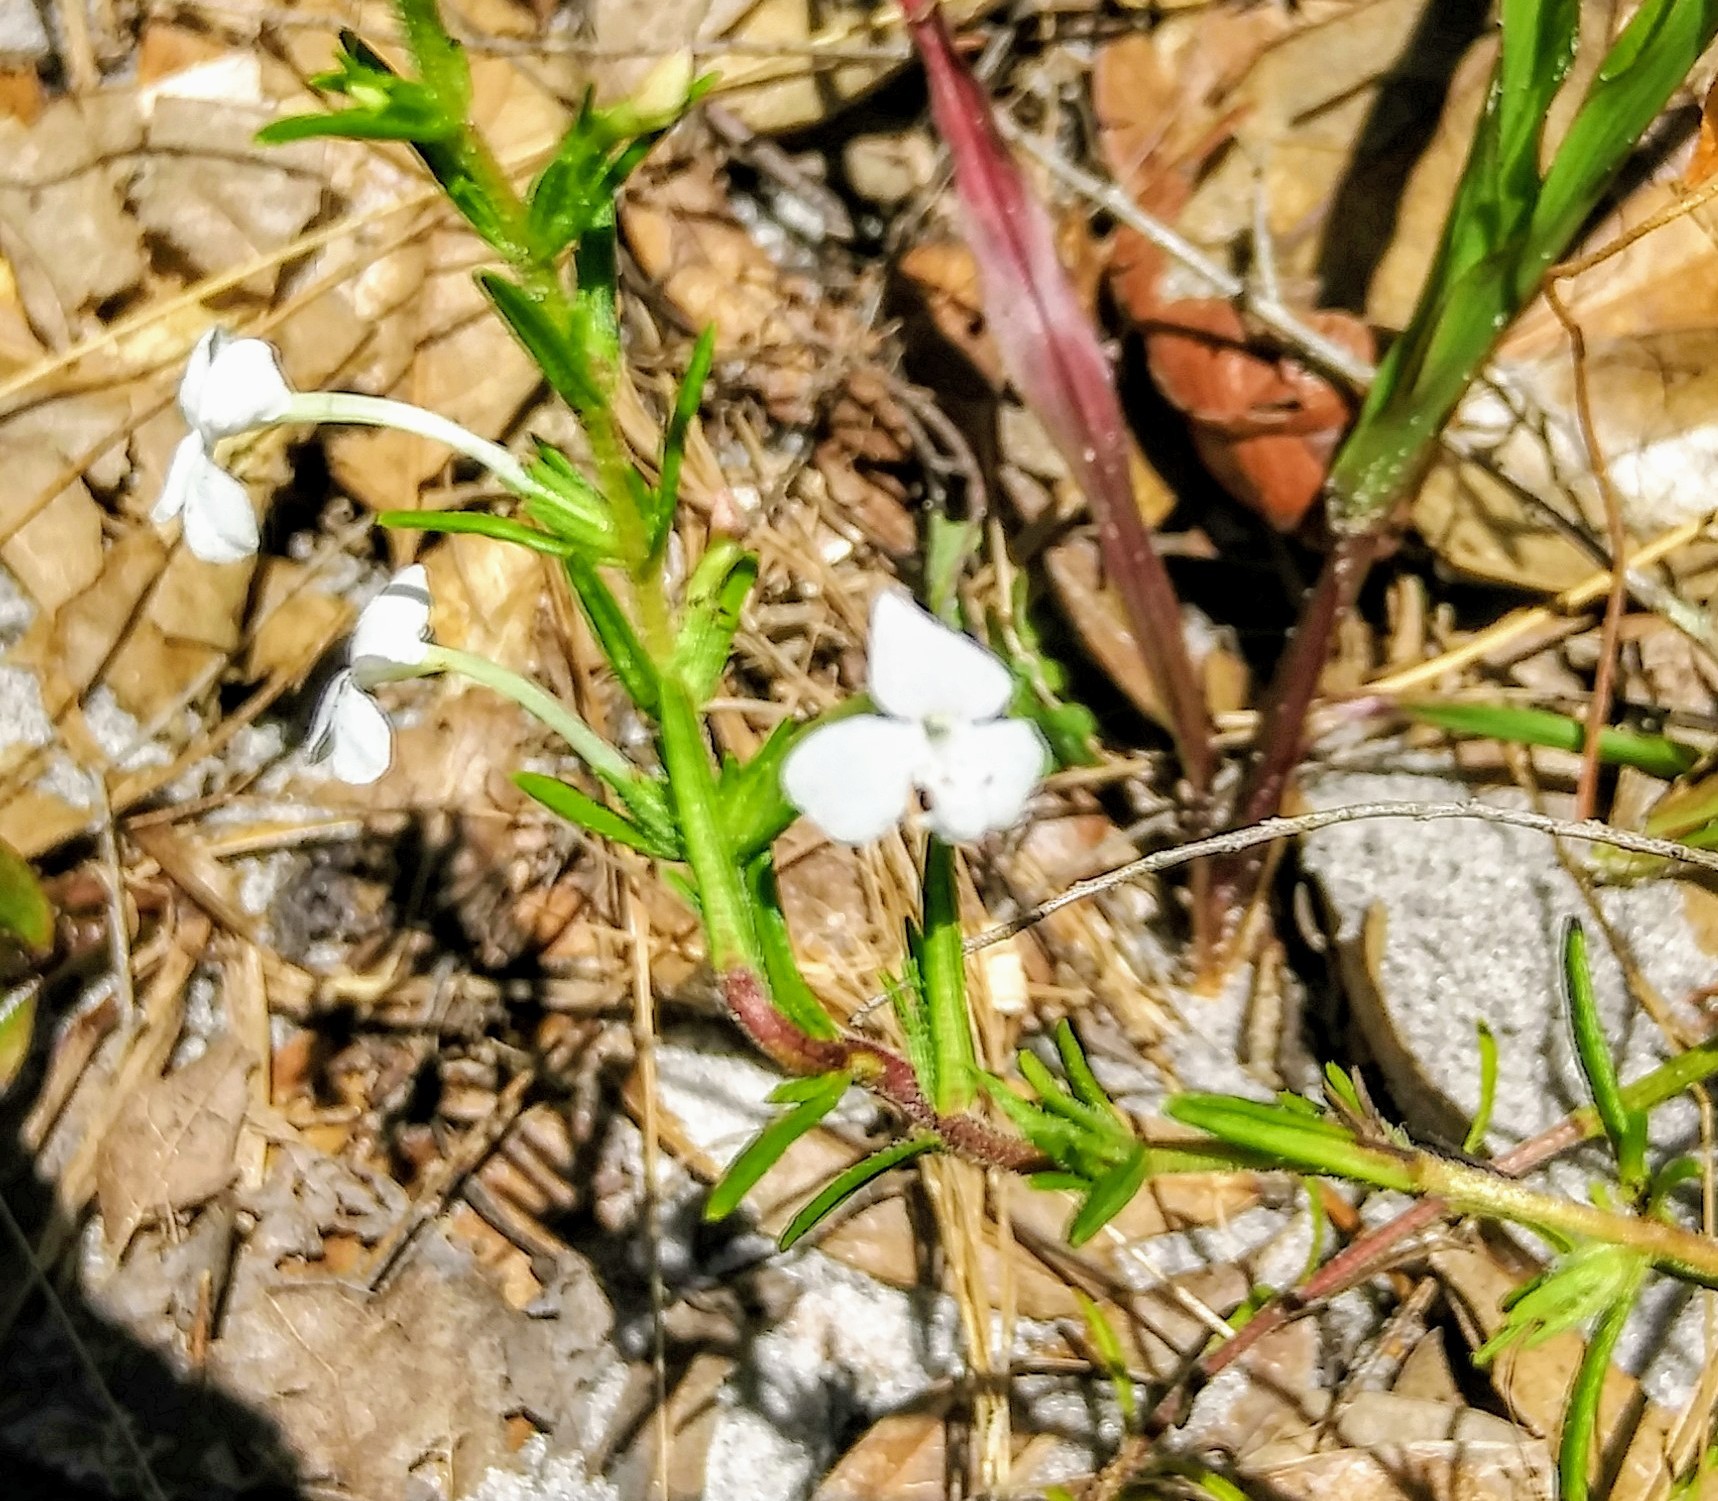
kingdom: Plantae
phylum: Tracheophyta
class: Magnoliopsida
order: Lamiales
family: Plantaginaceae
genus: Gratiola
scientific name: Gratiola hispida
